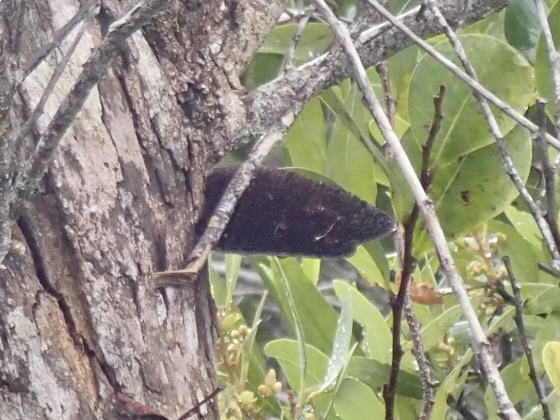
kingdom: Fungi
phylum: Basidiomycota
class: Agaricomycetes
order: Polyporales
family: Cerrenaceae
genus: Cerrena
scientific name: Cerrena hydnoides
